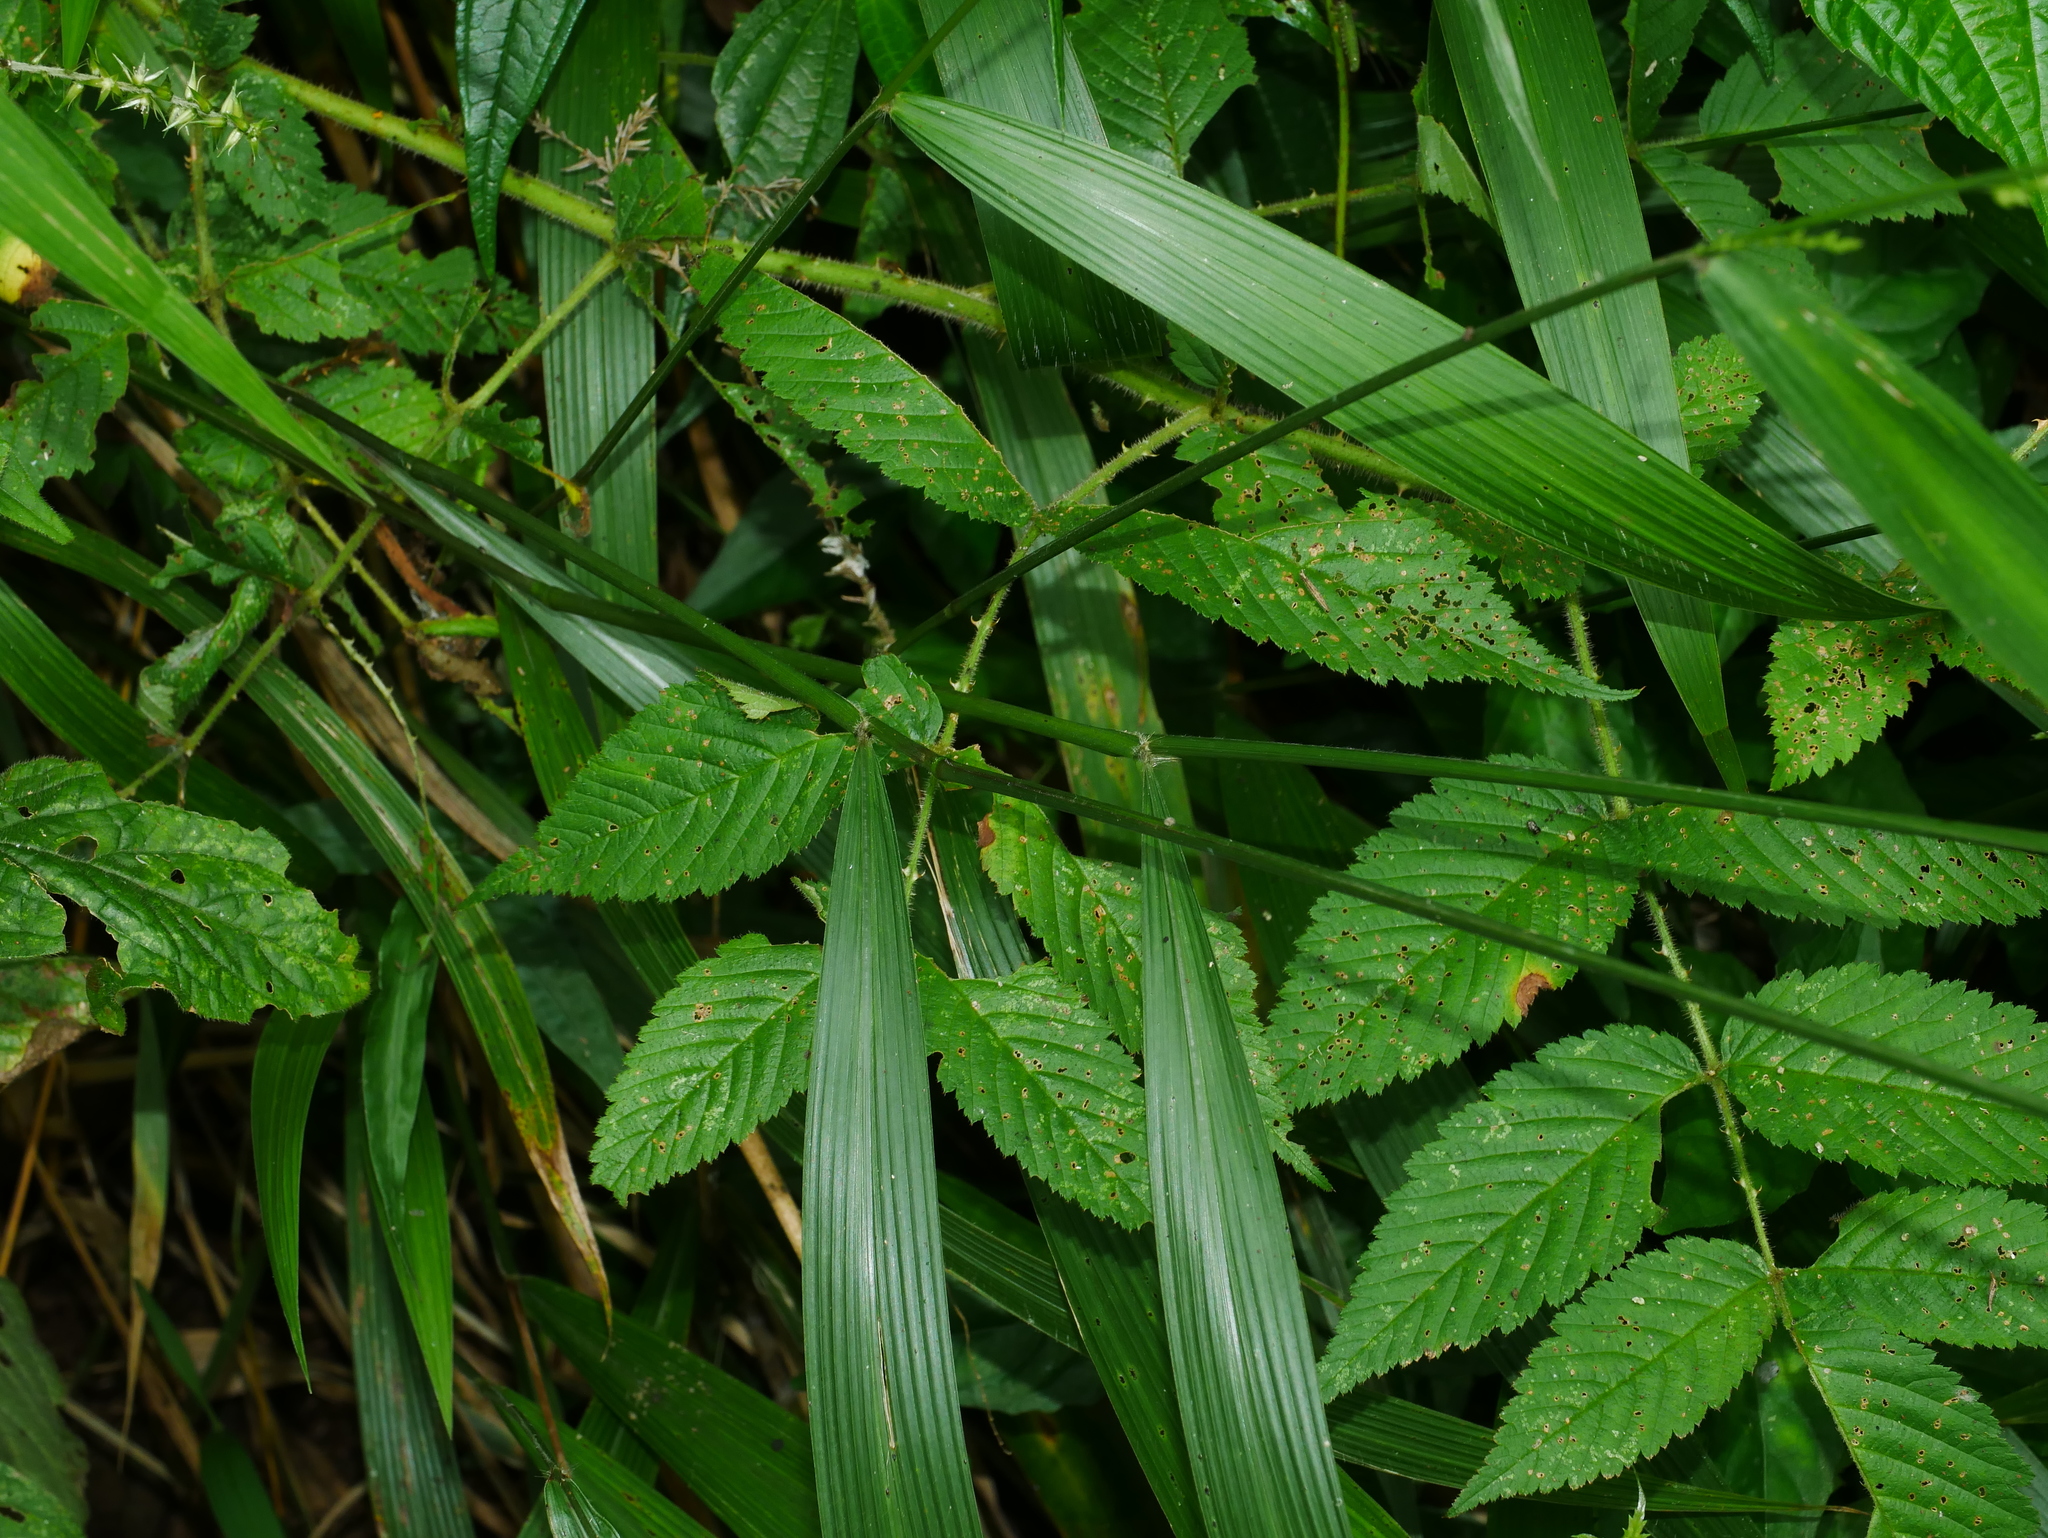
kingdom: Plantae
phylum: Tracheophyta
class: Liliopsida
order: Poales
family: Poaceae
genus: Setaria
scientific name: Setaria palmifolia
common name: Broadleaved bristlegrass
